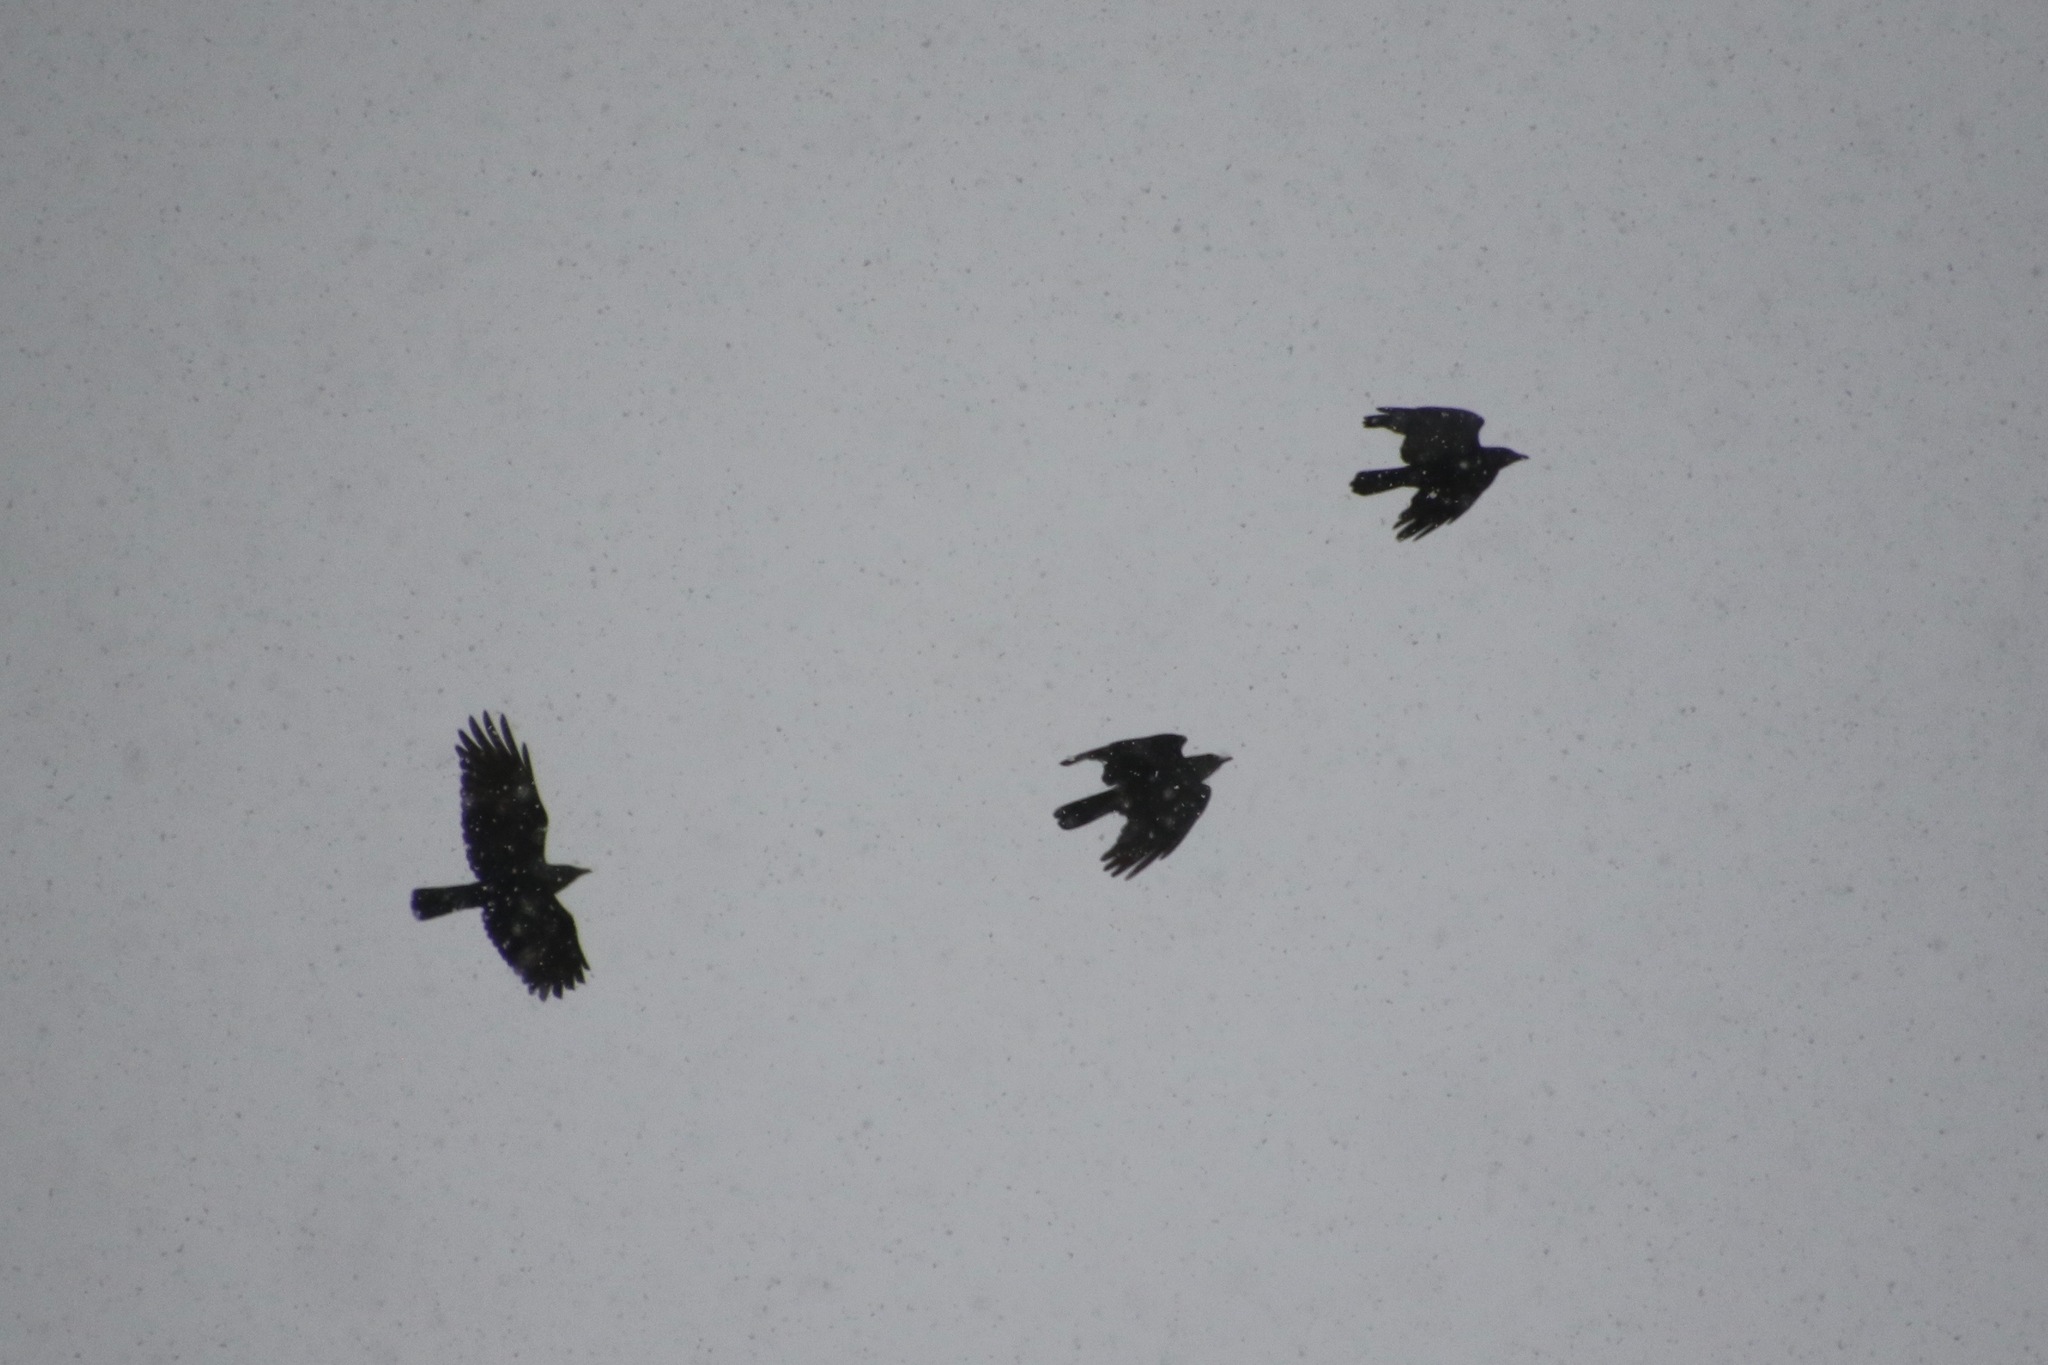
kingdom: Animalia
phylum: Chordata
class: Aves
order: Passeriformes
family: Corvidae
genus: Corvus
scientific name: Corvus ossifragus
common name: Fish crow
